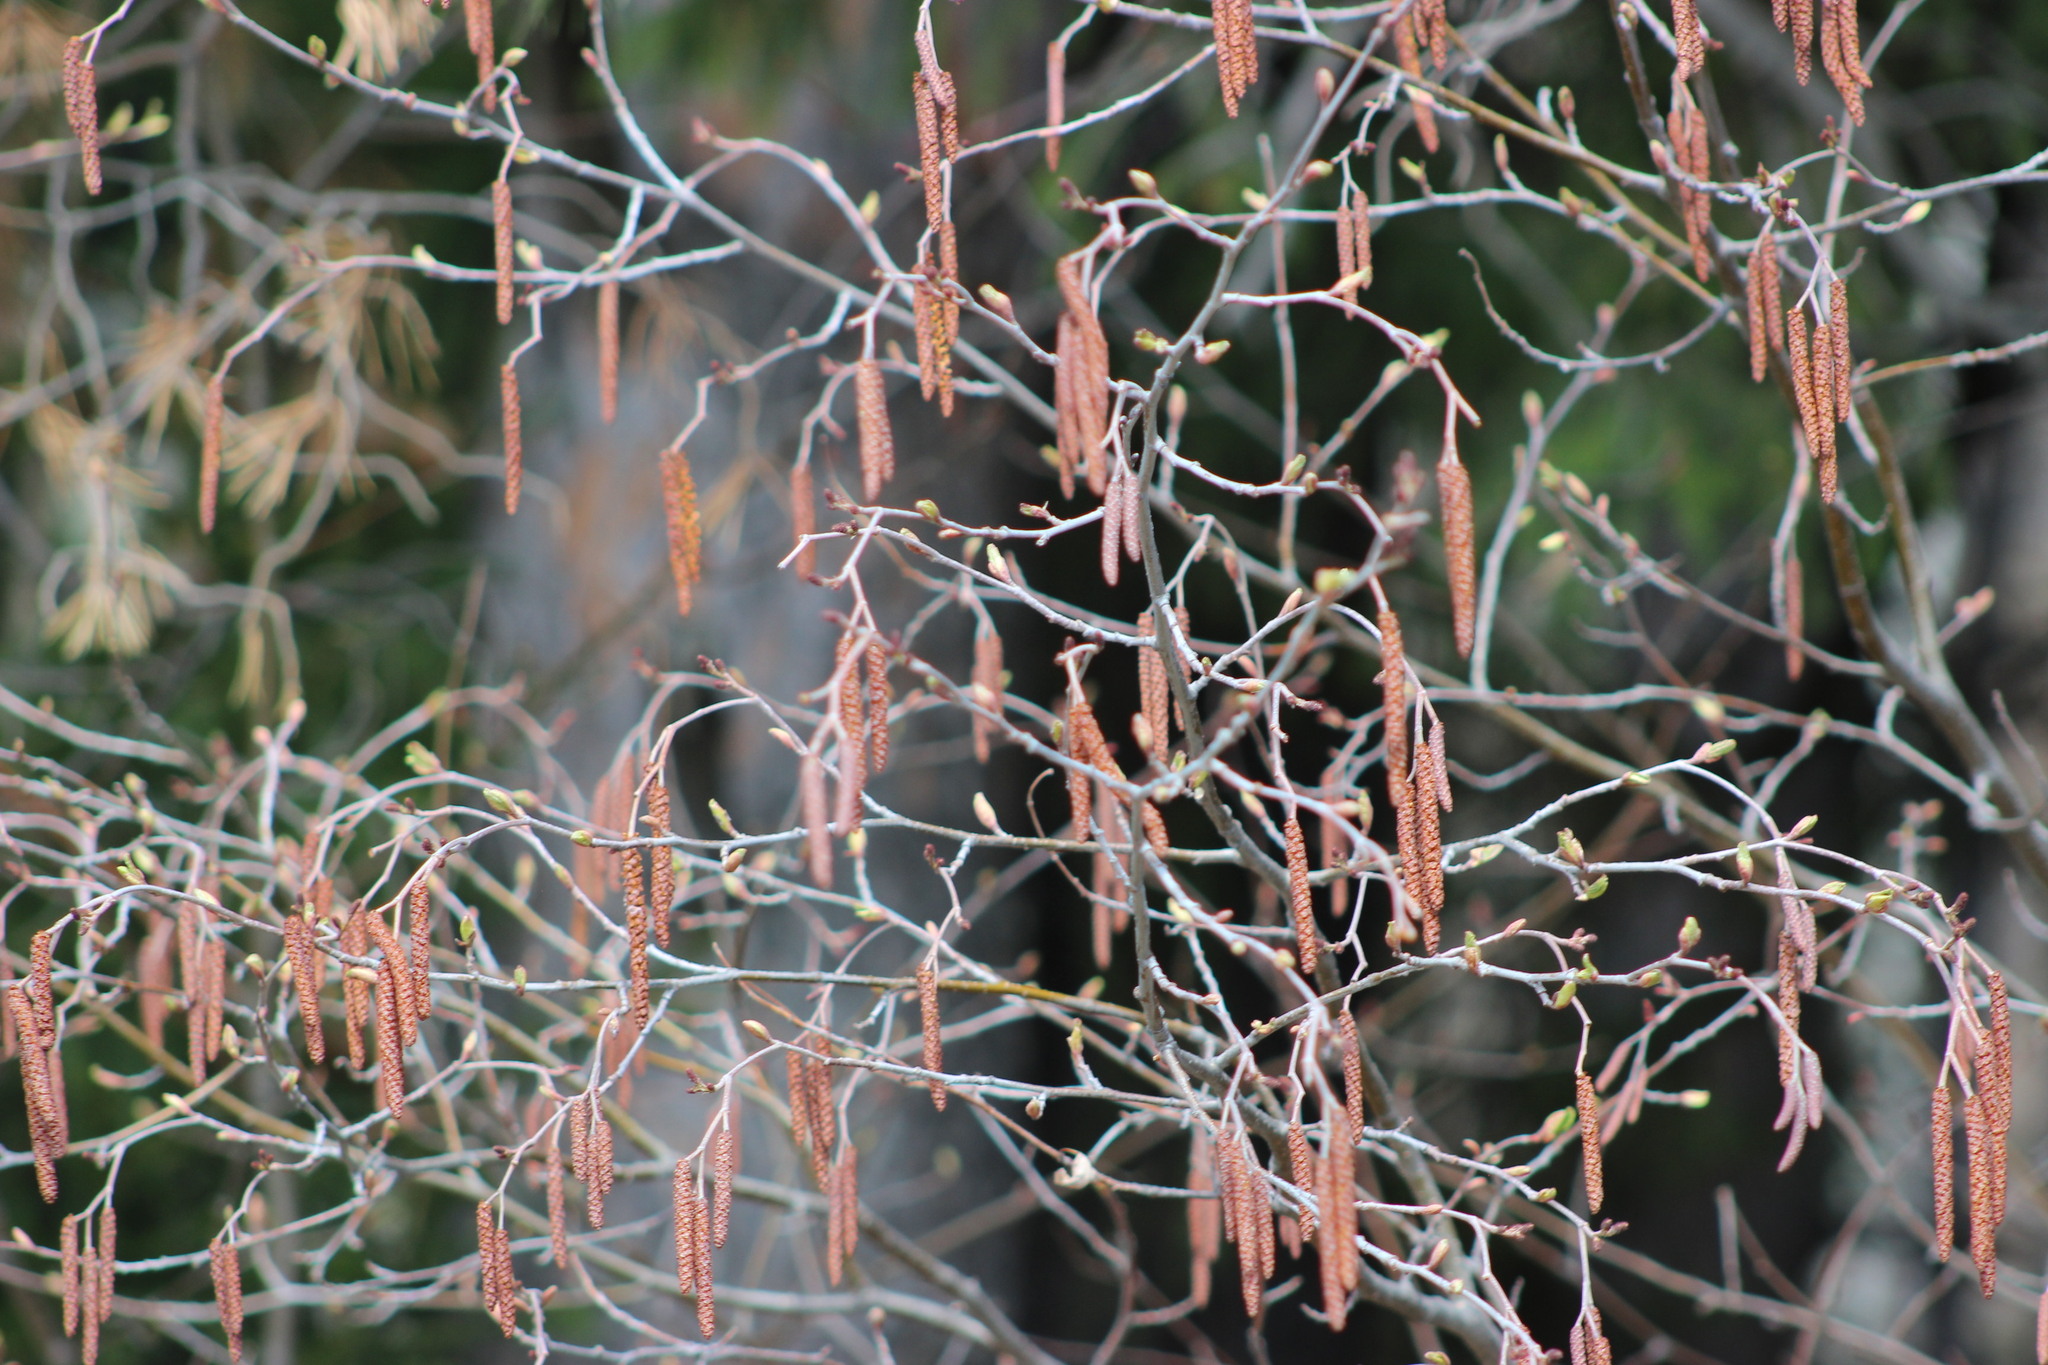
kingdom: Plantae
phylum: Tracheophyta
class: Magnoliopsida
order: Fagales
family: Betulaceae
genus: Alnus
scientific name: Alnus incana
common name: Grey alder
